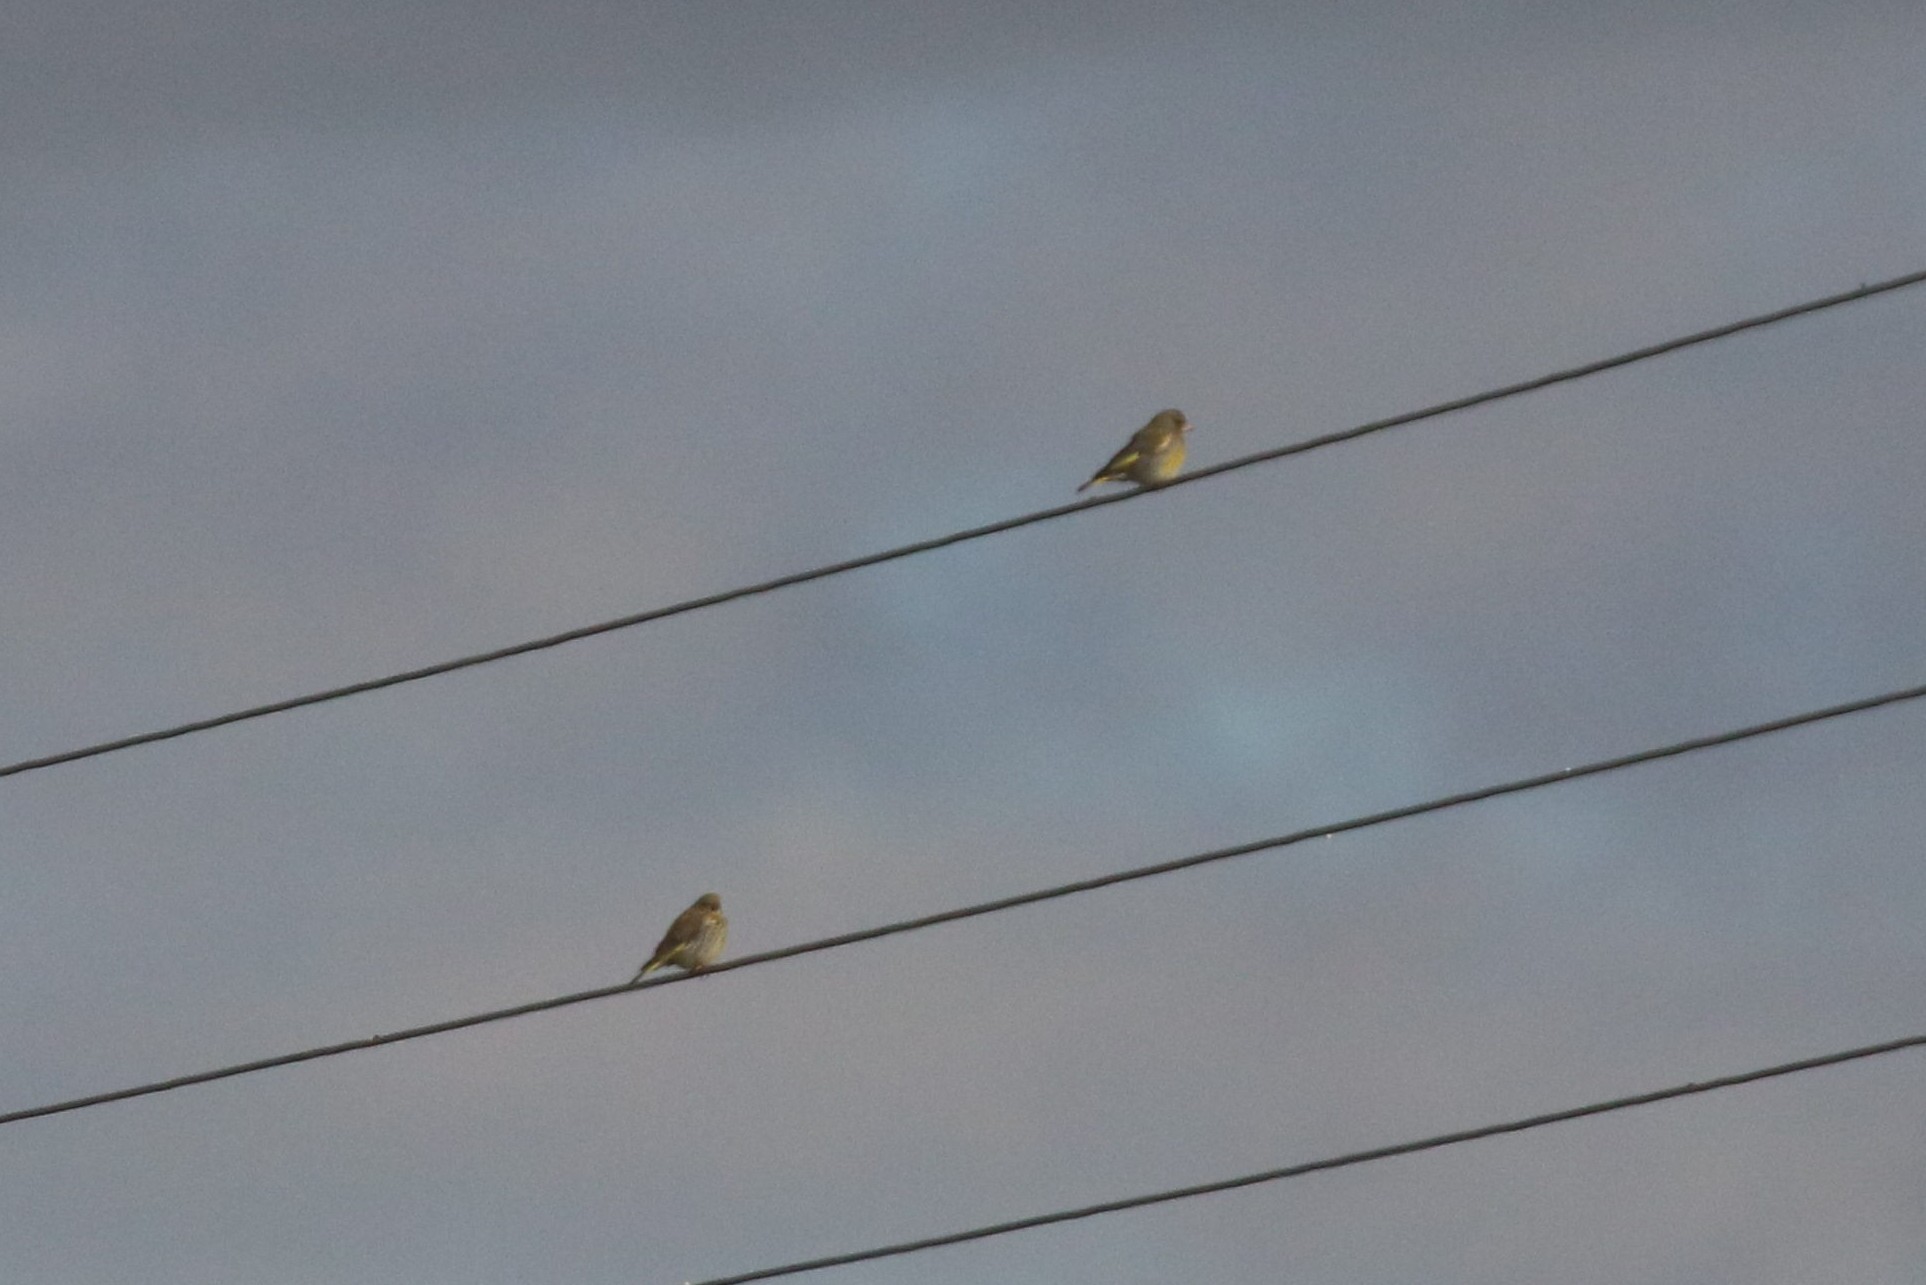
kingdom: Plantae
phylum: Tracheophyta
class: Liliopsida
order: Poales
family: Poaceae
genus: Chloris
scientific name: Chloris chloris
